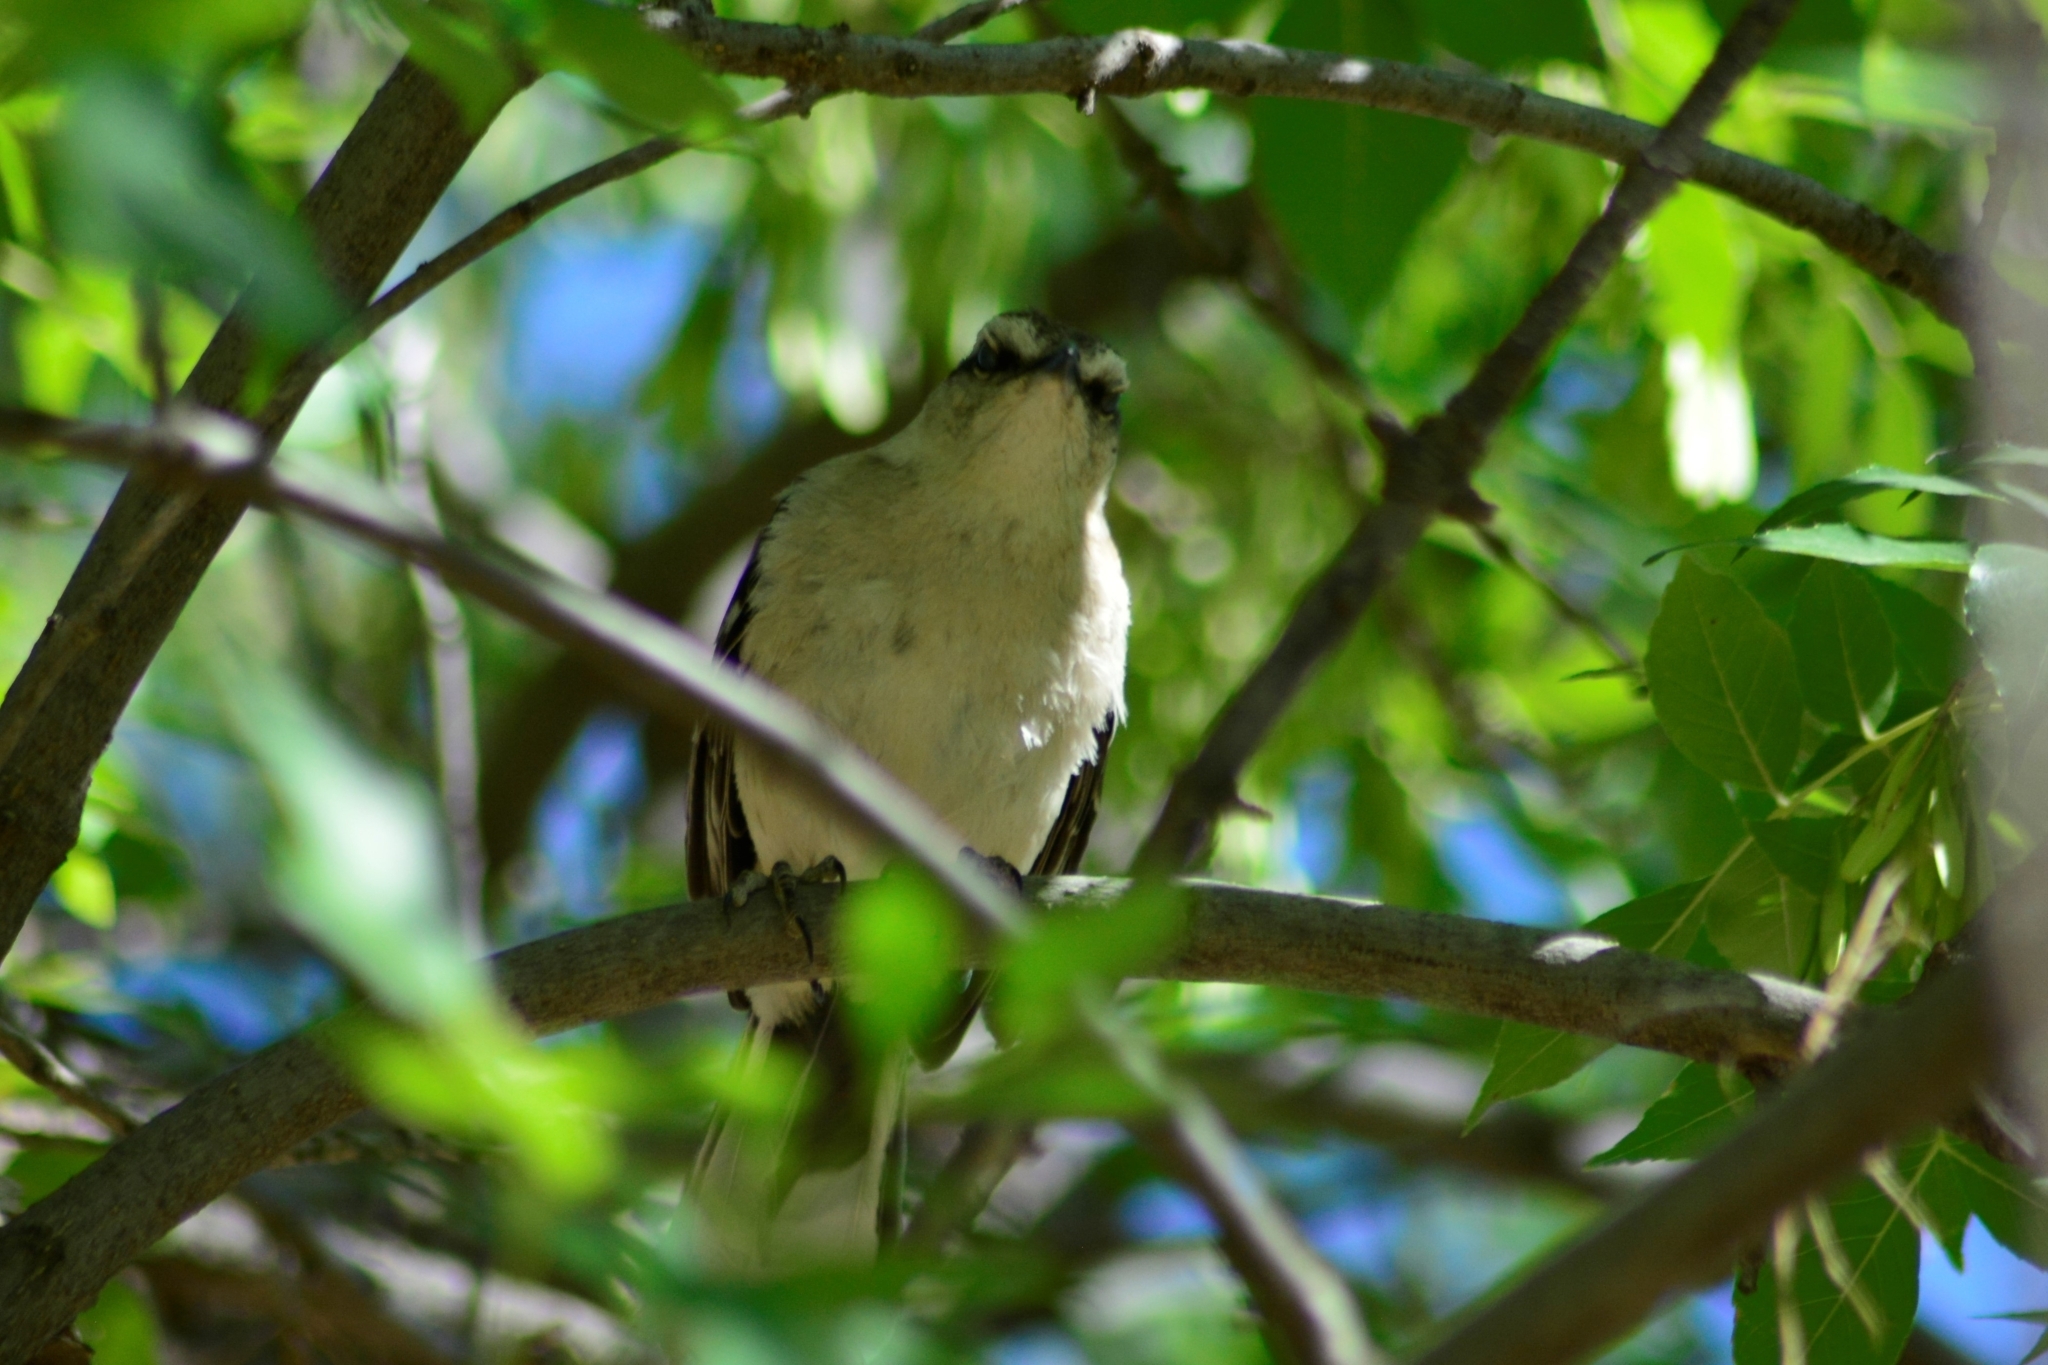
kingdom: Animalia
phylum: Chordata
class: Aves
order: Passeriformes
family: Mimidae
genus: Mimus
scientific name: Mimus saturninus
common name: Chalk-browed mockingbird
